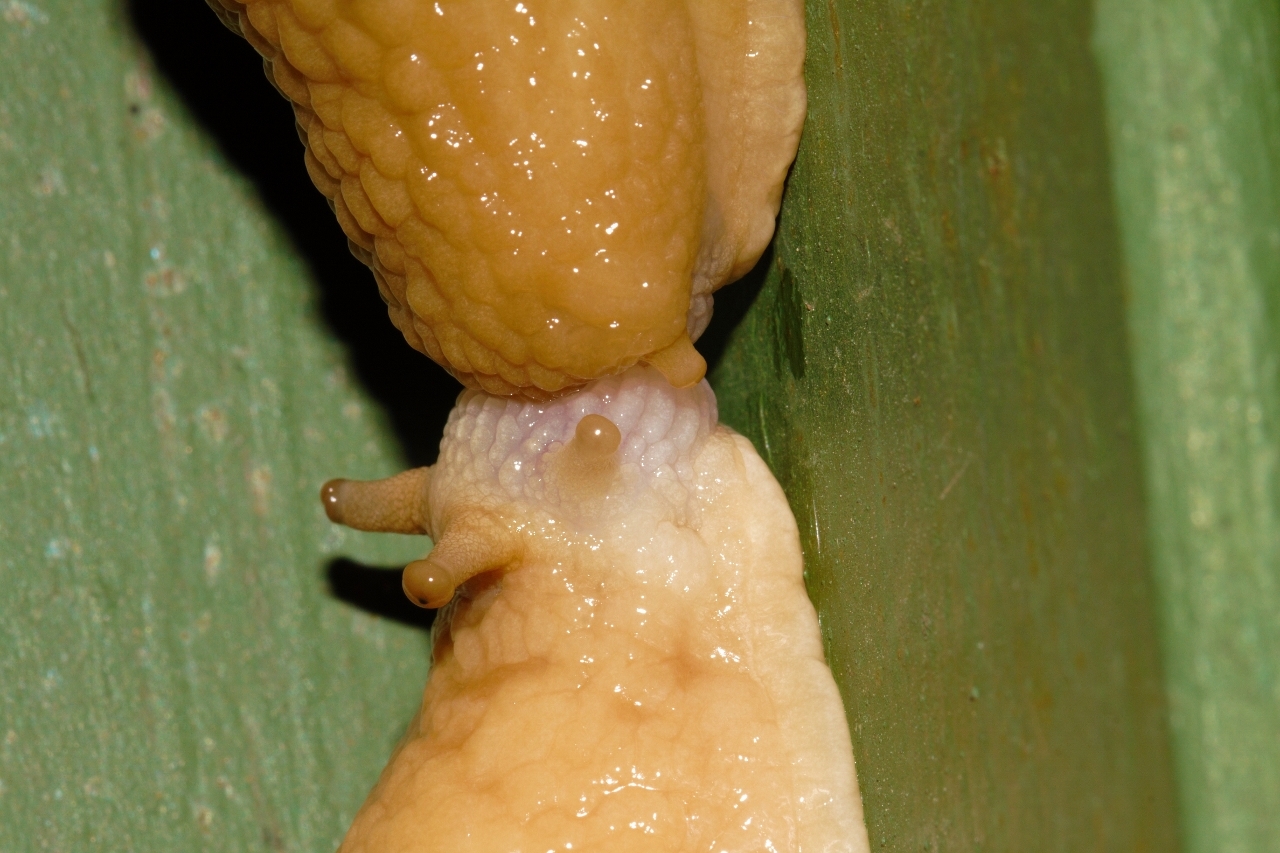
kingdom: Animalia
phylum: Mollusca
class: Gastropoda
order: Stylommatophora
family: Urocyclidae
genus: Polytoxon
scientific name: Polytoxon robustum
